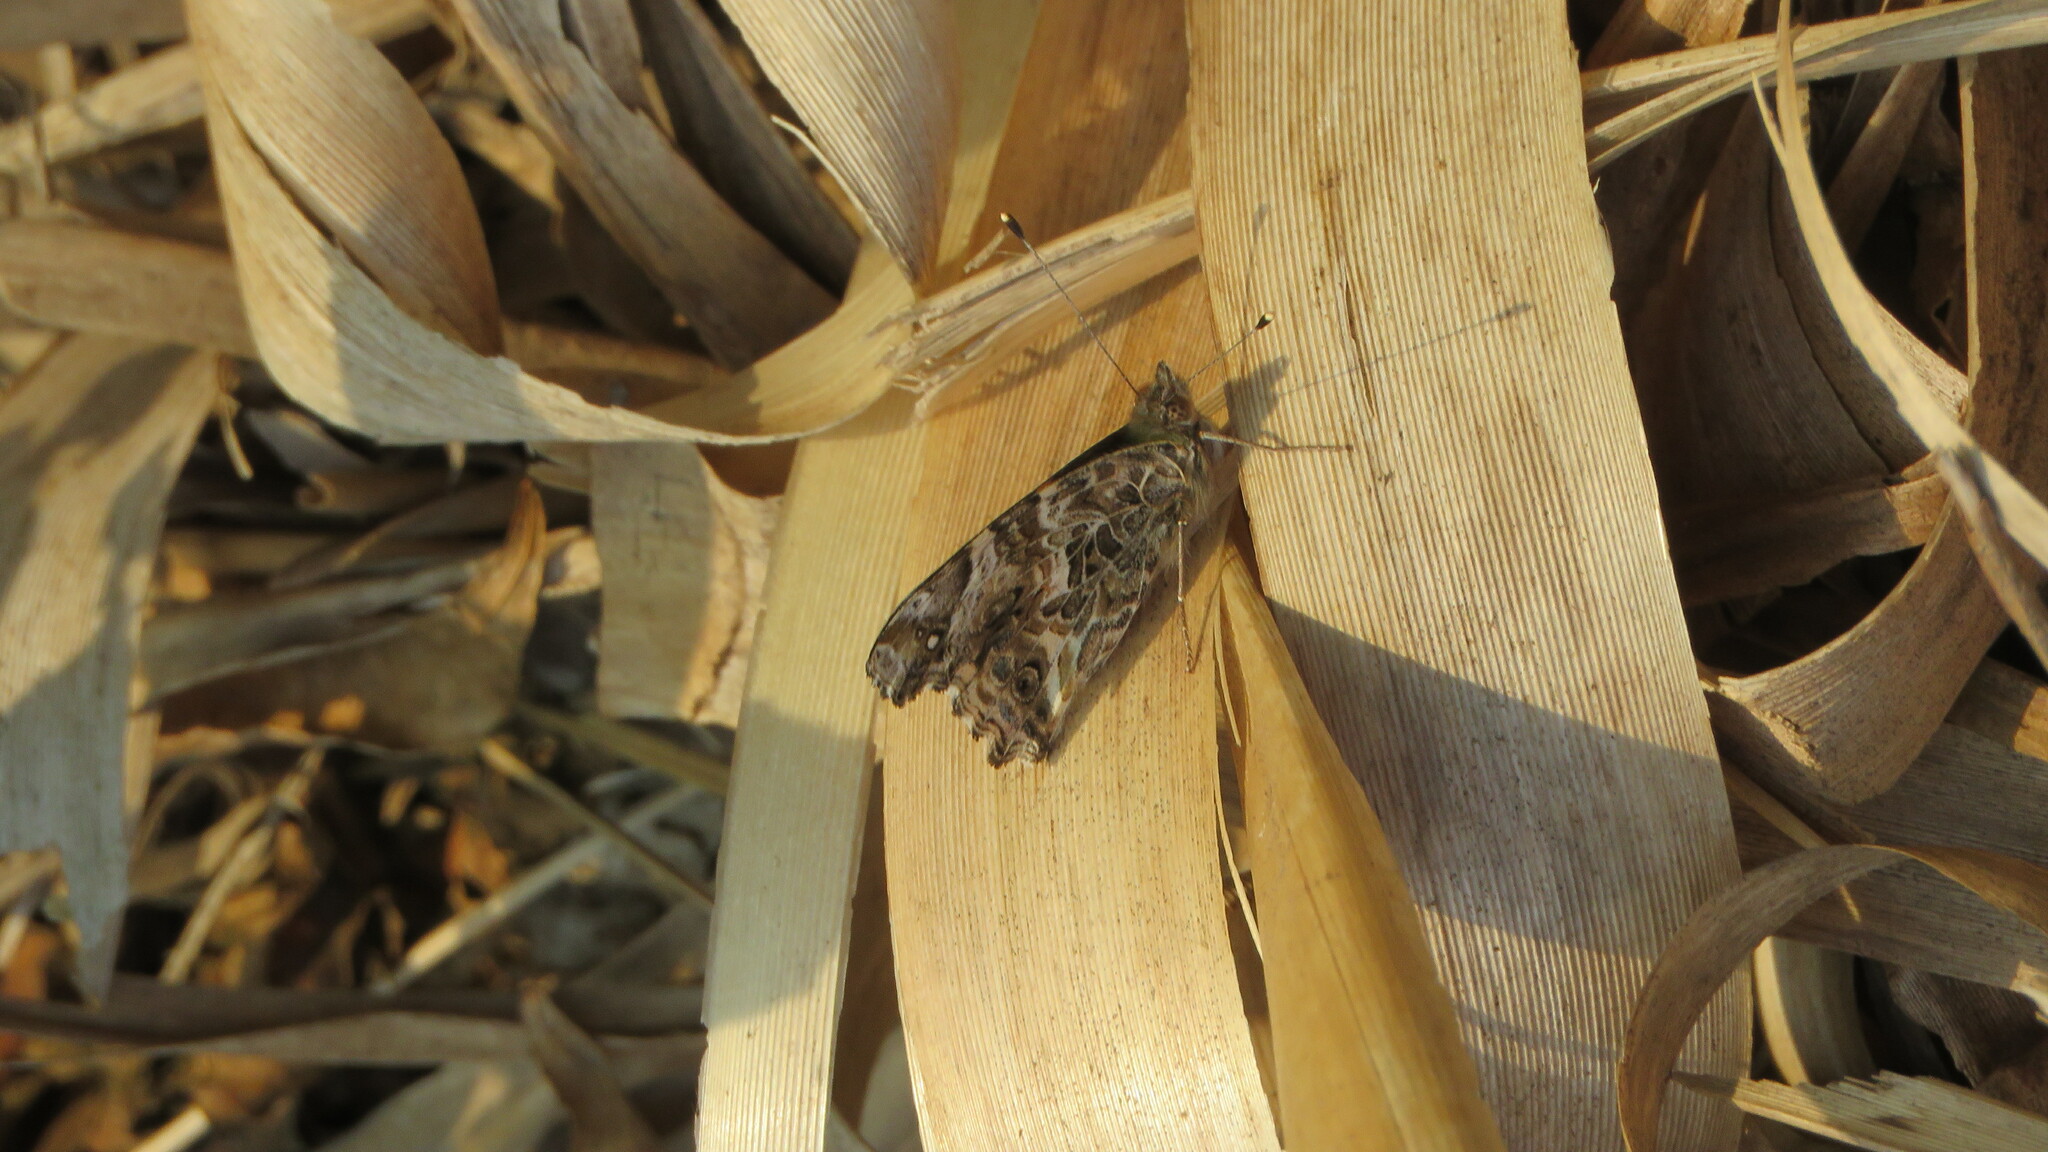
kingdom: Animalia
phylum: Arthropoda
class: Insecta
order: Lepidoptera
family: Nymphalidae
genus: Vanessa
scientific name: Vanessa carye
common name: Subtropical lady
